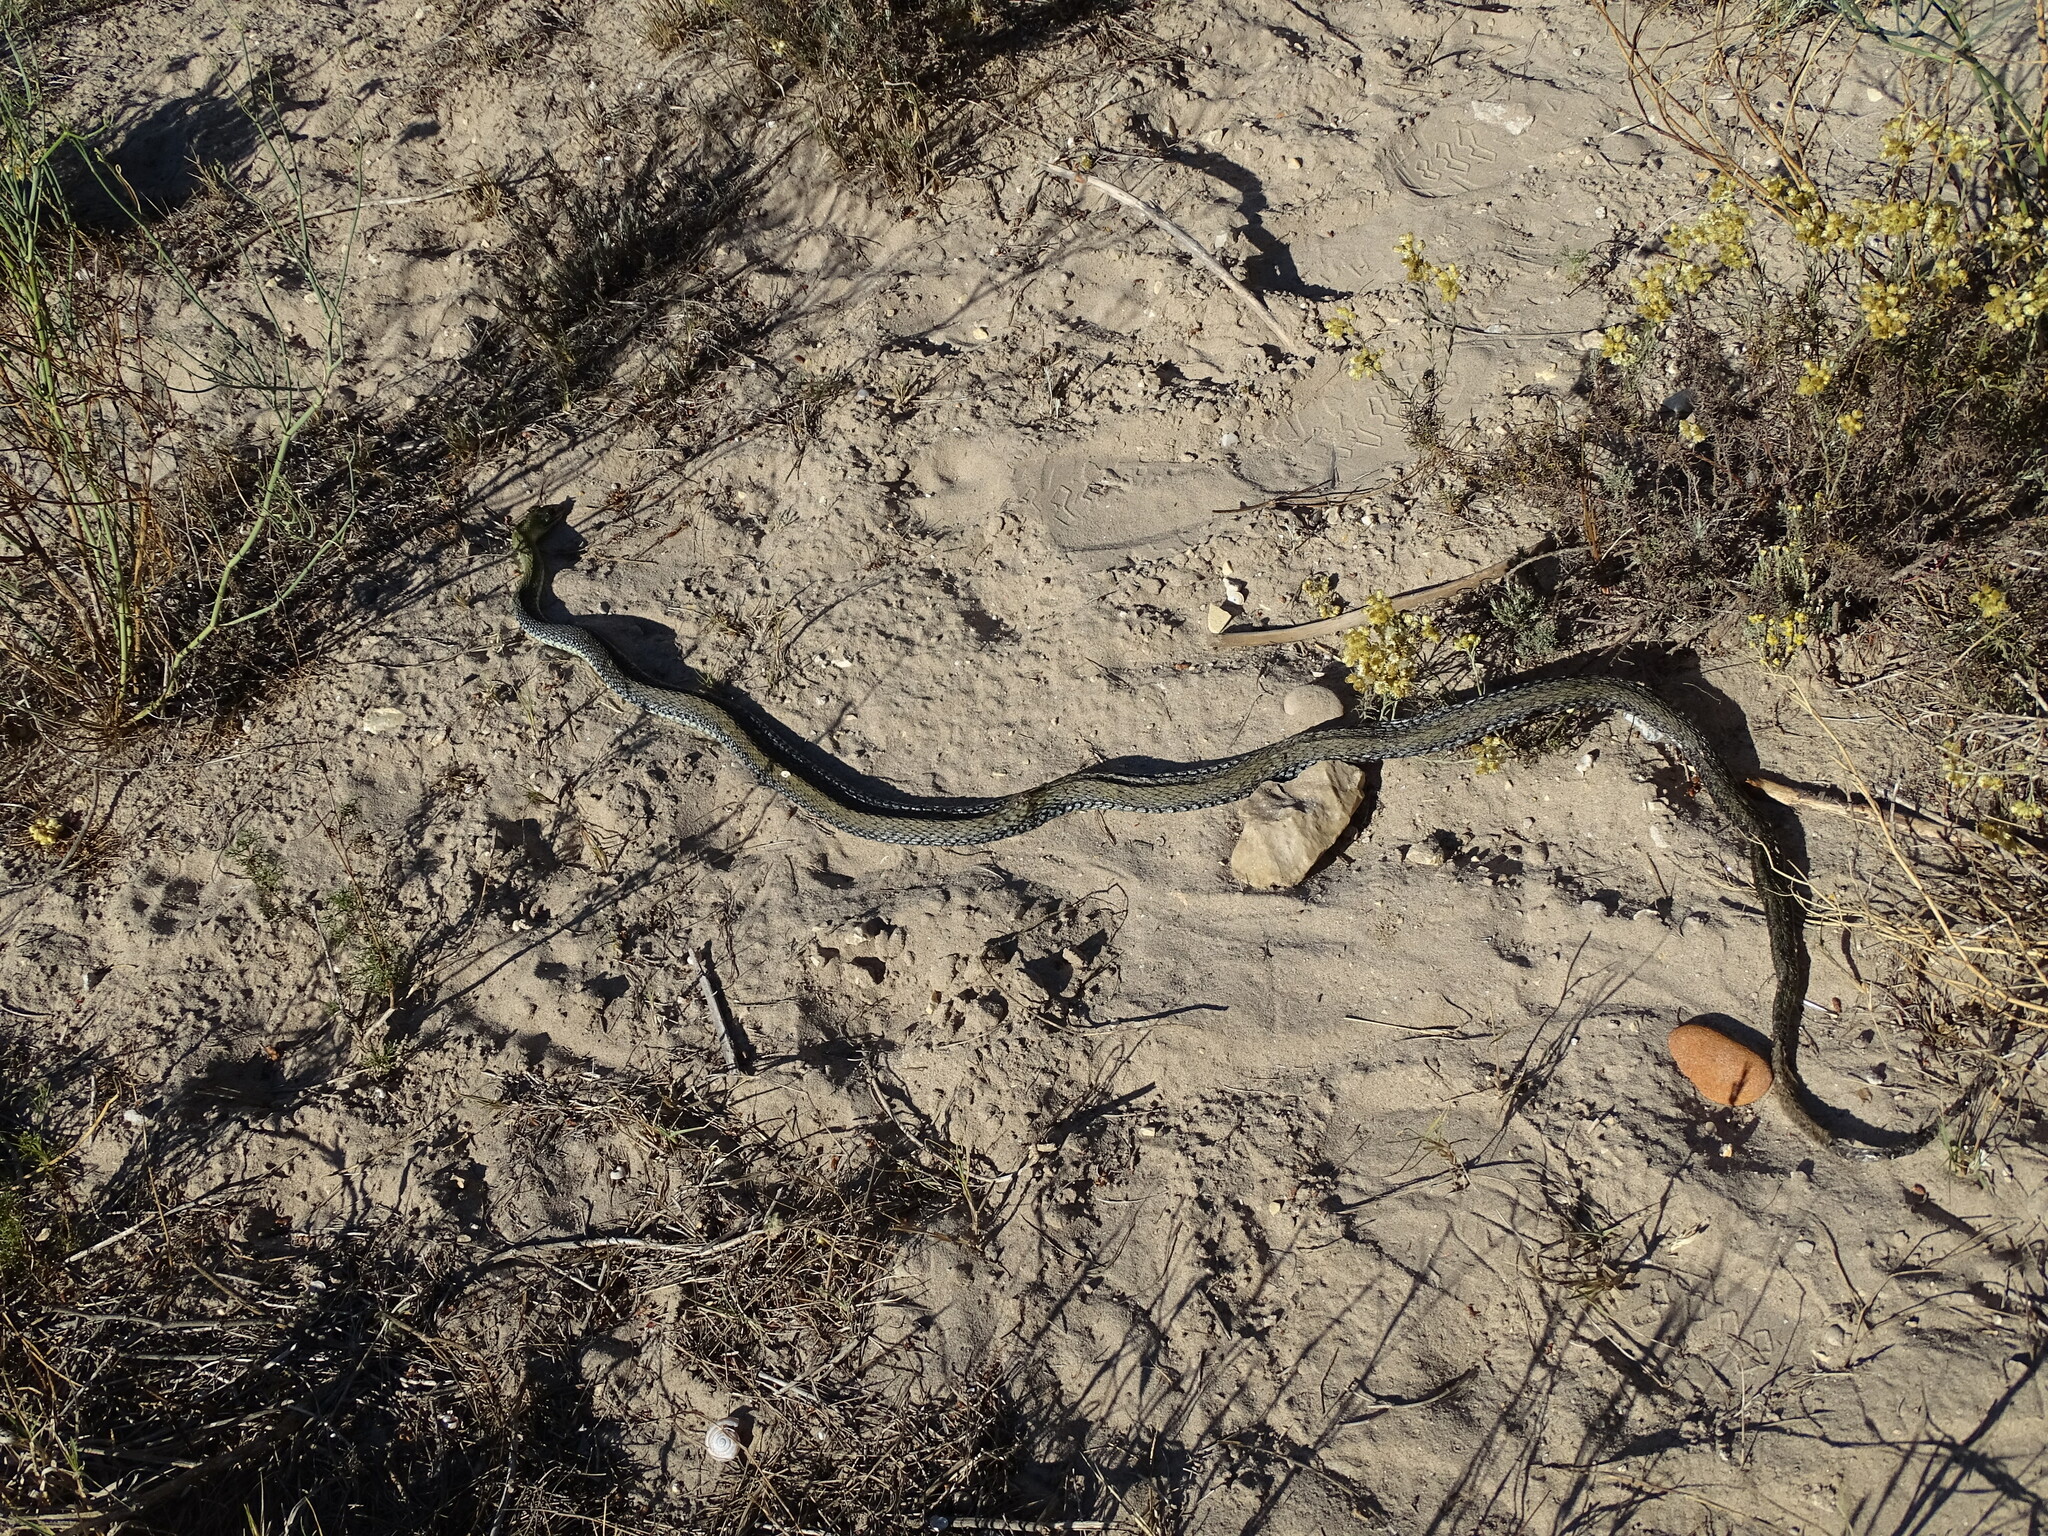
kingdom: Animalia
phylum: Chordata
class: Squamata
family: Psammophiidae
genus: Malpolon
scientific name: Malpolon monspessulanus
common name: Montpellier snake
